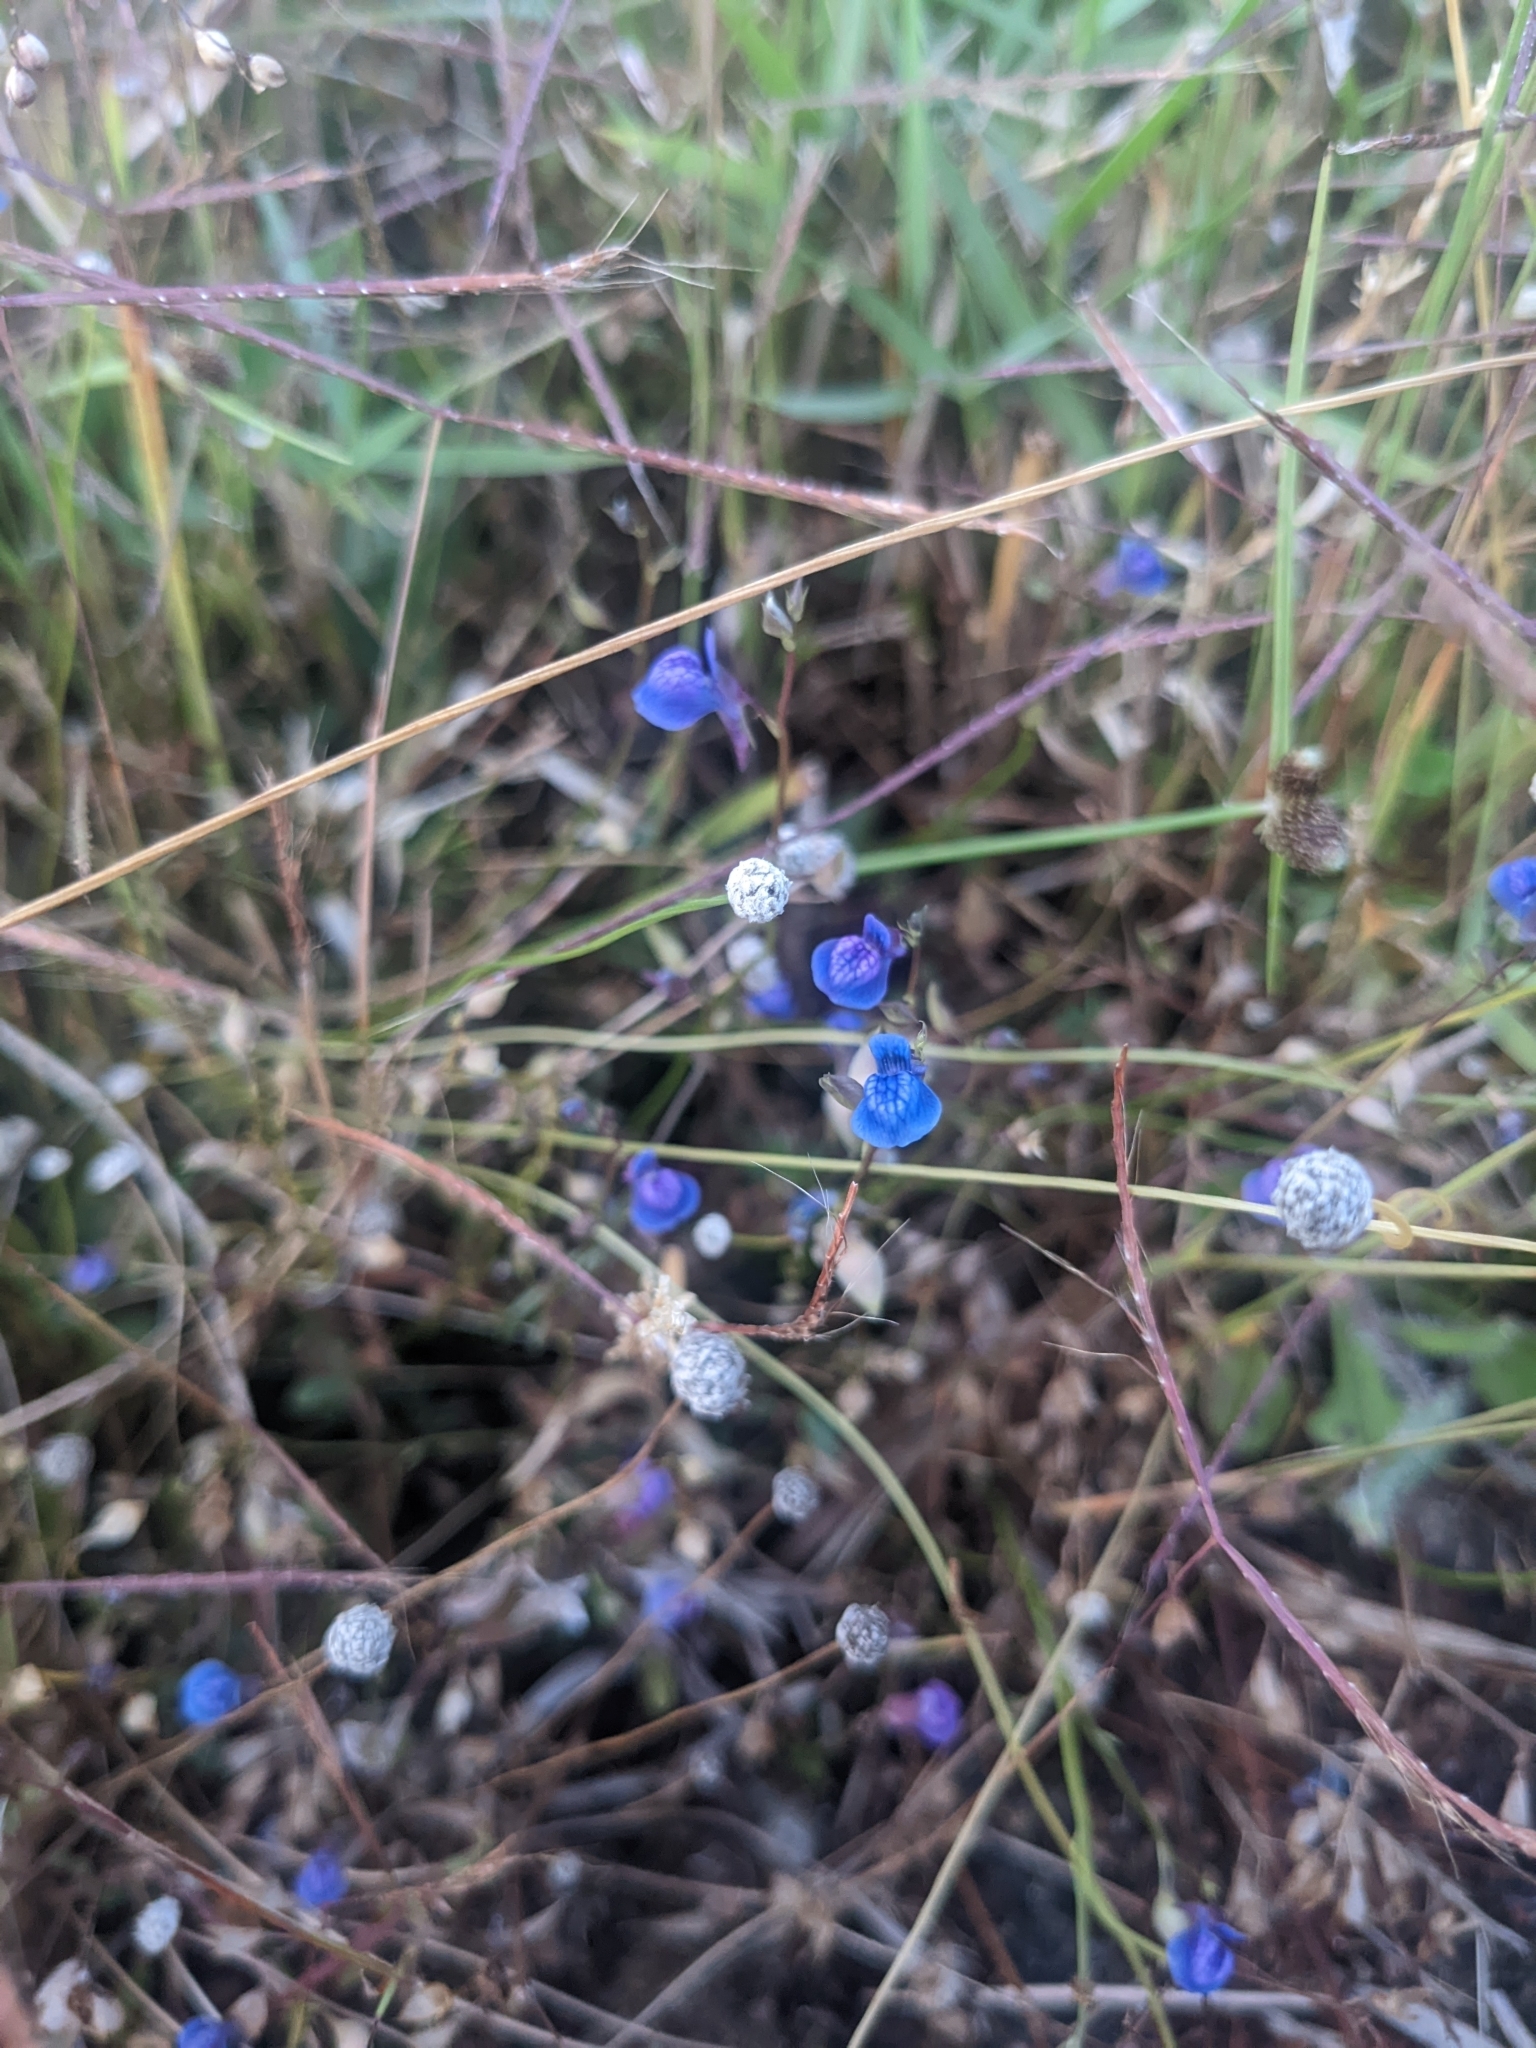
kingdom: Plantae
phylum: Tracheophyta
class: Magnoliopsida
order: Lamiales
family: Lentibulariaceae
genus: Utricularia
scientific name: Utricularia reticulata
